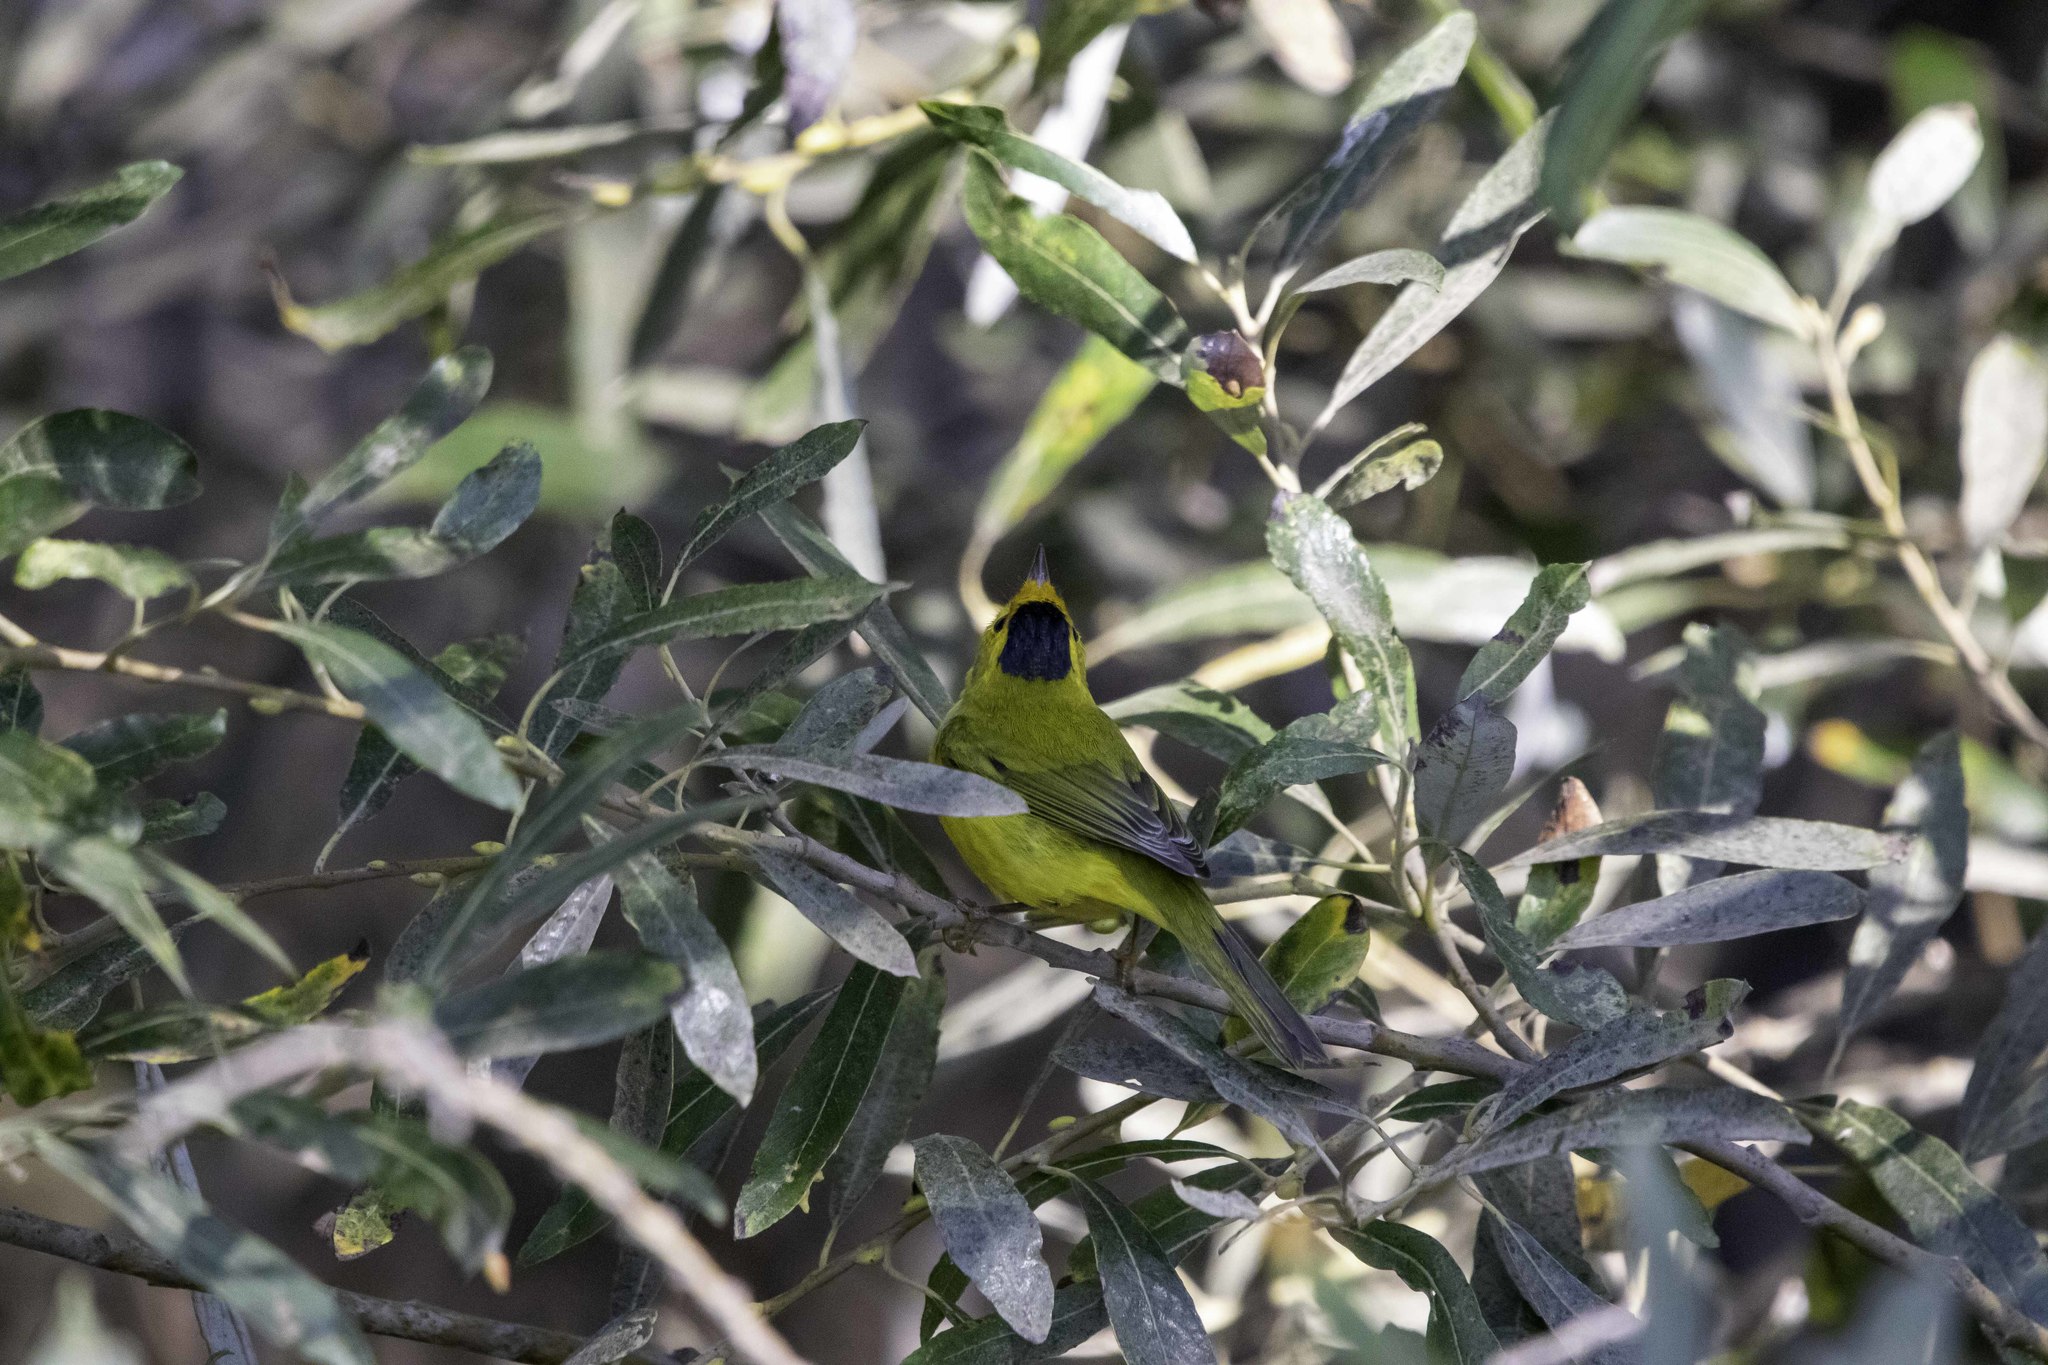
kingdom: Animalia
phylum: Chordata
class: Aves
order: Passeriformes
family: Parulidae
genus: Cardellina
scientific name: Cardellina pusilla
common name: Wilson's warbler
